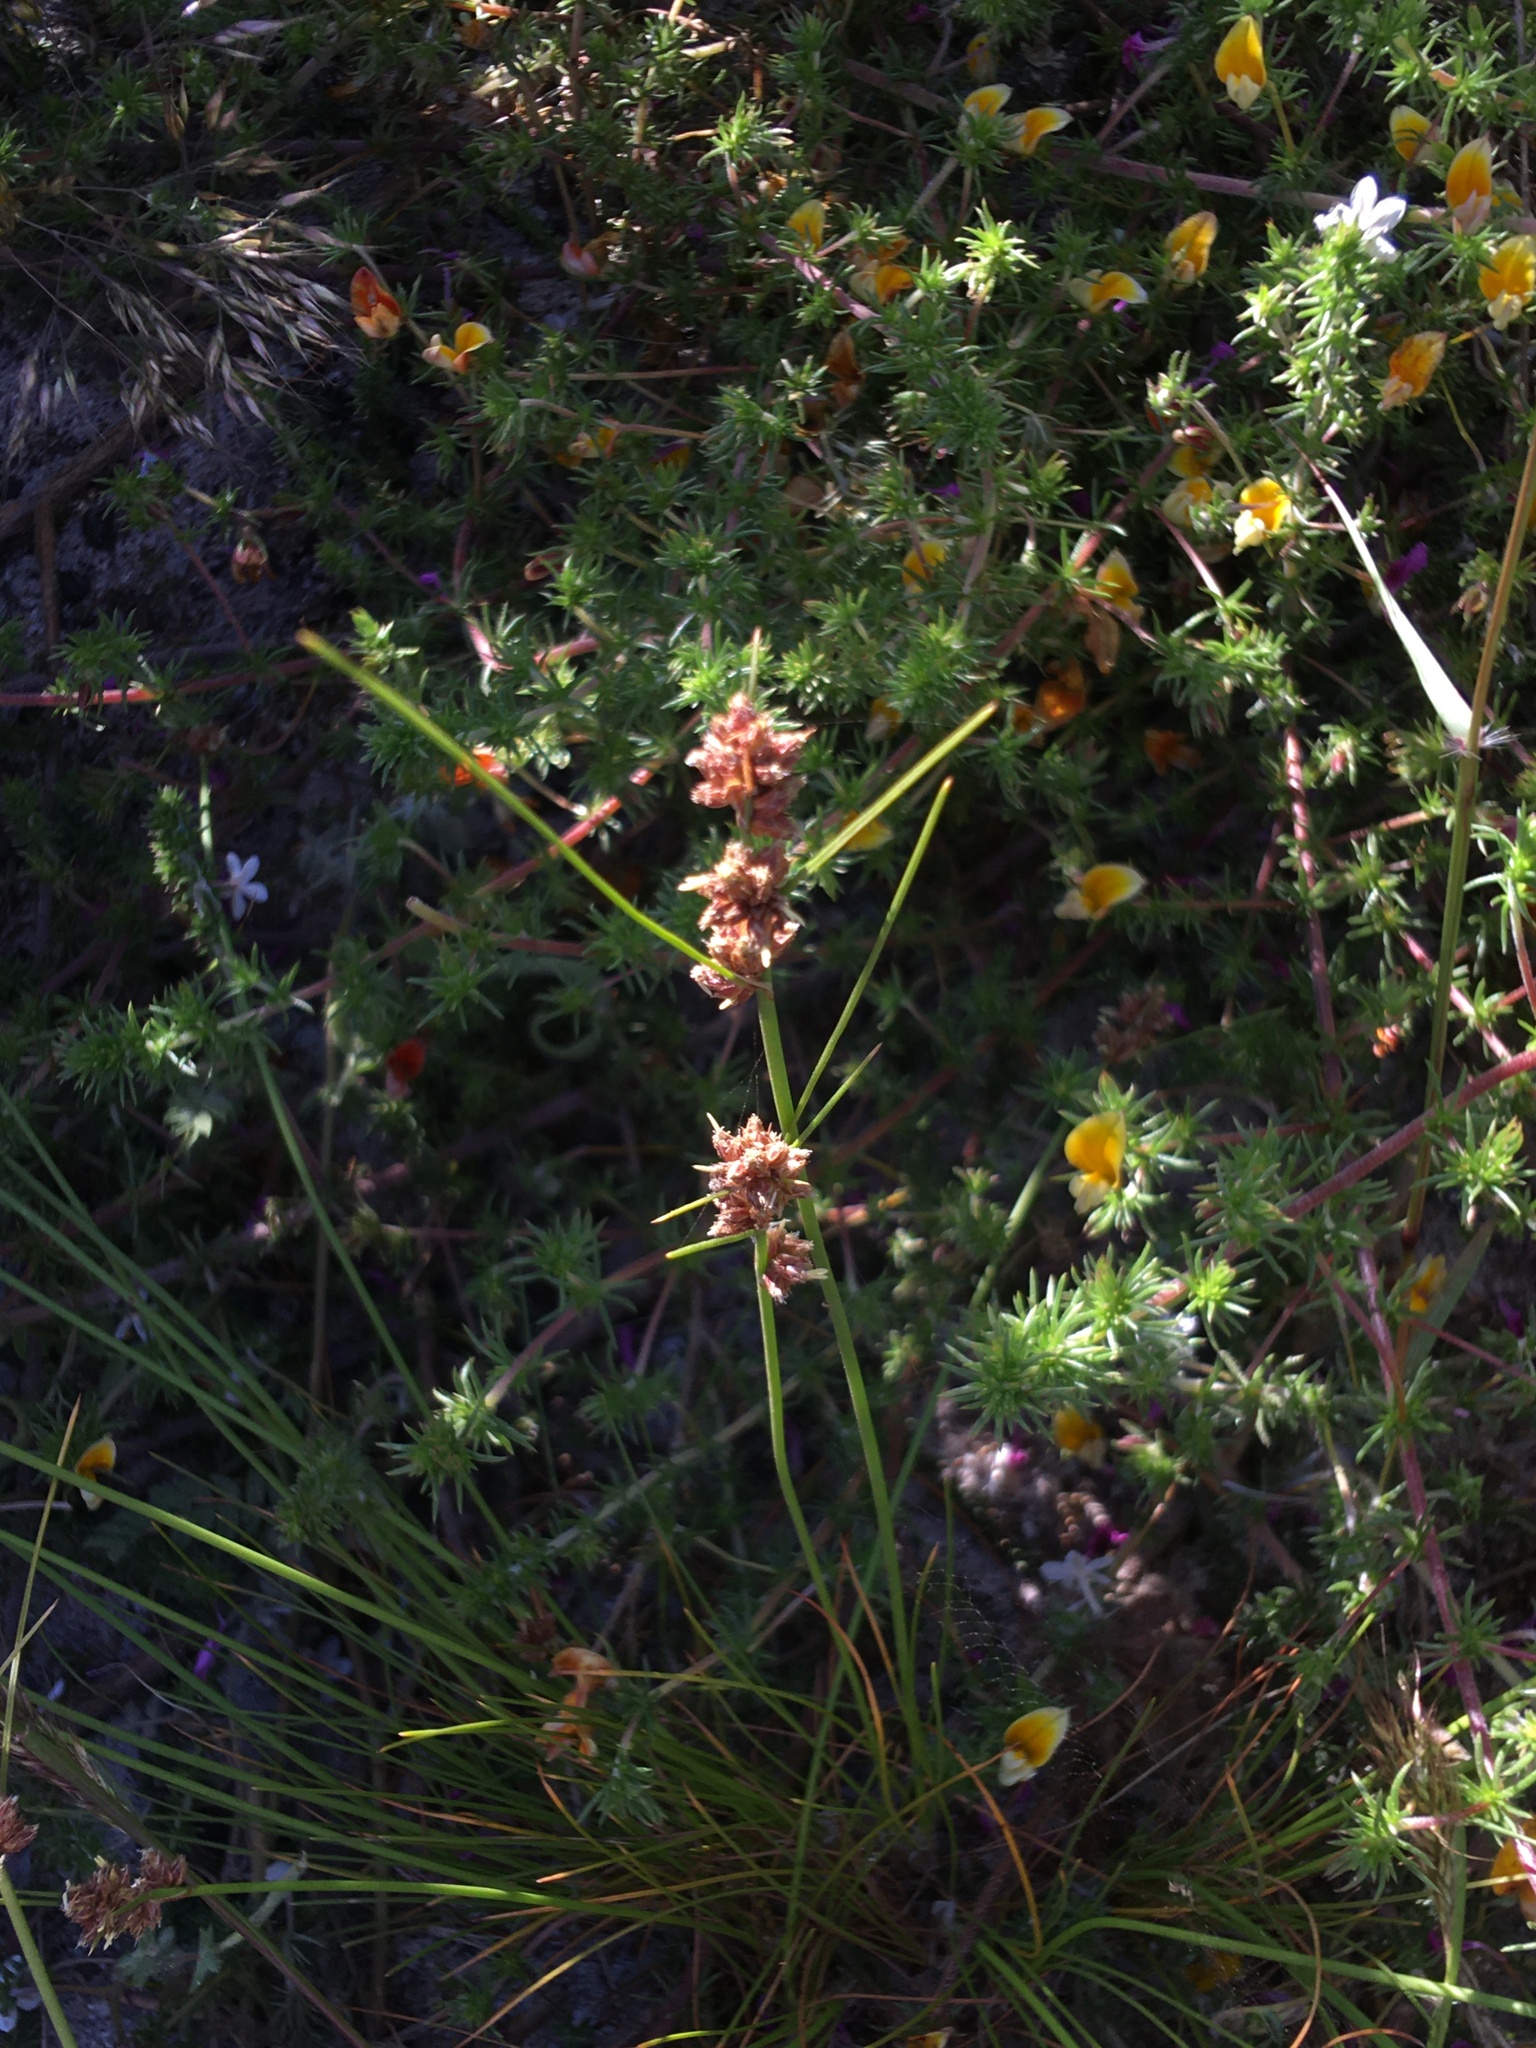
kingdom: Plantae
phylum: Tracheophyta
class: Liliopsida
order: Poales
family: Cyperaceae
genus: Ficinia
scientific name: Ficinia bulbosa
